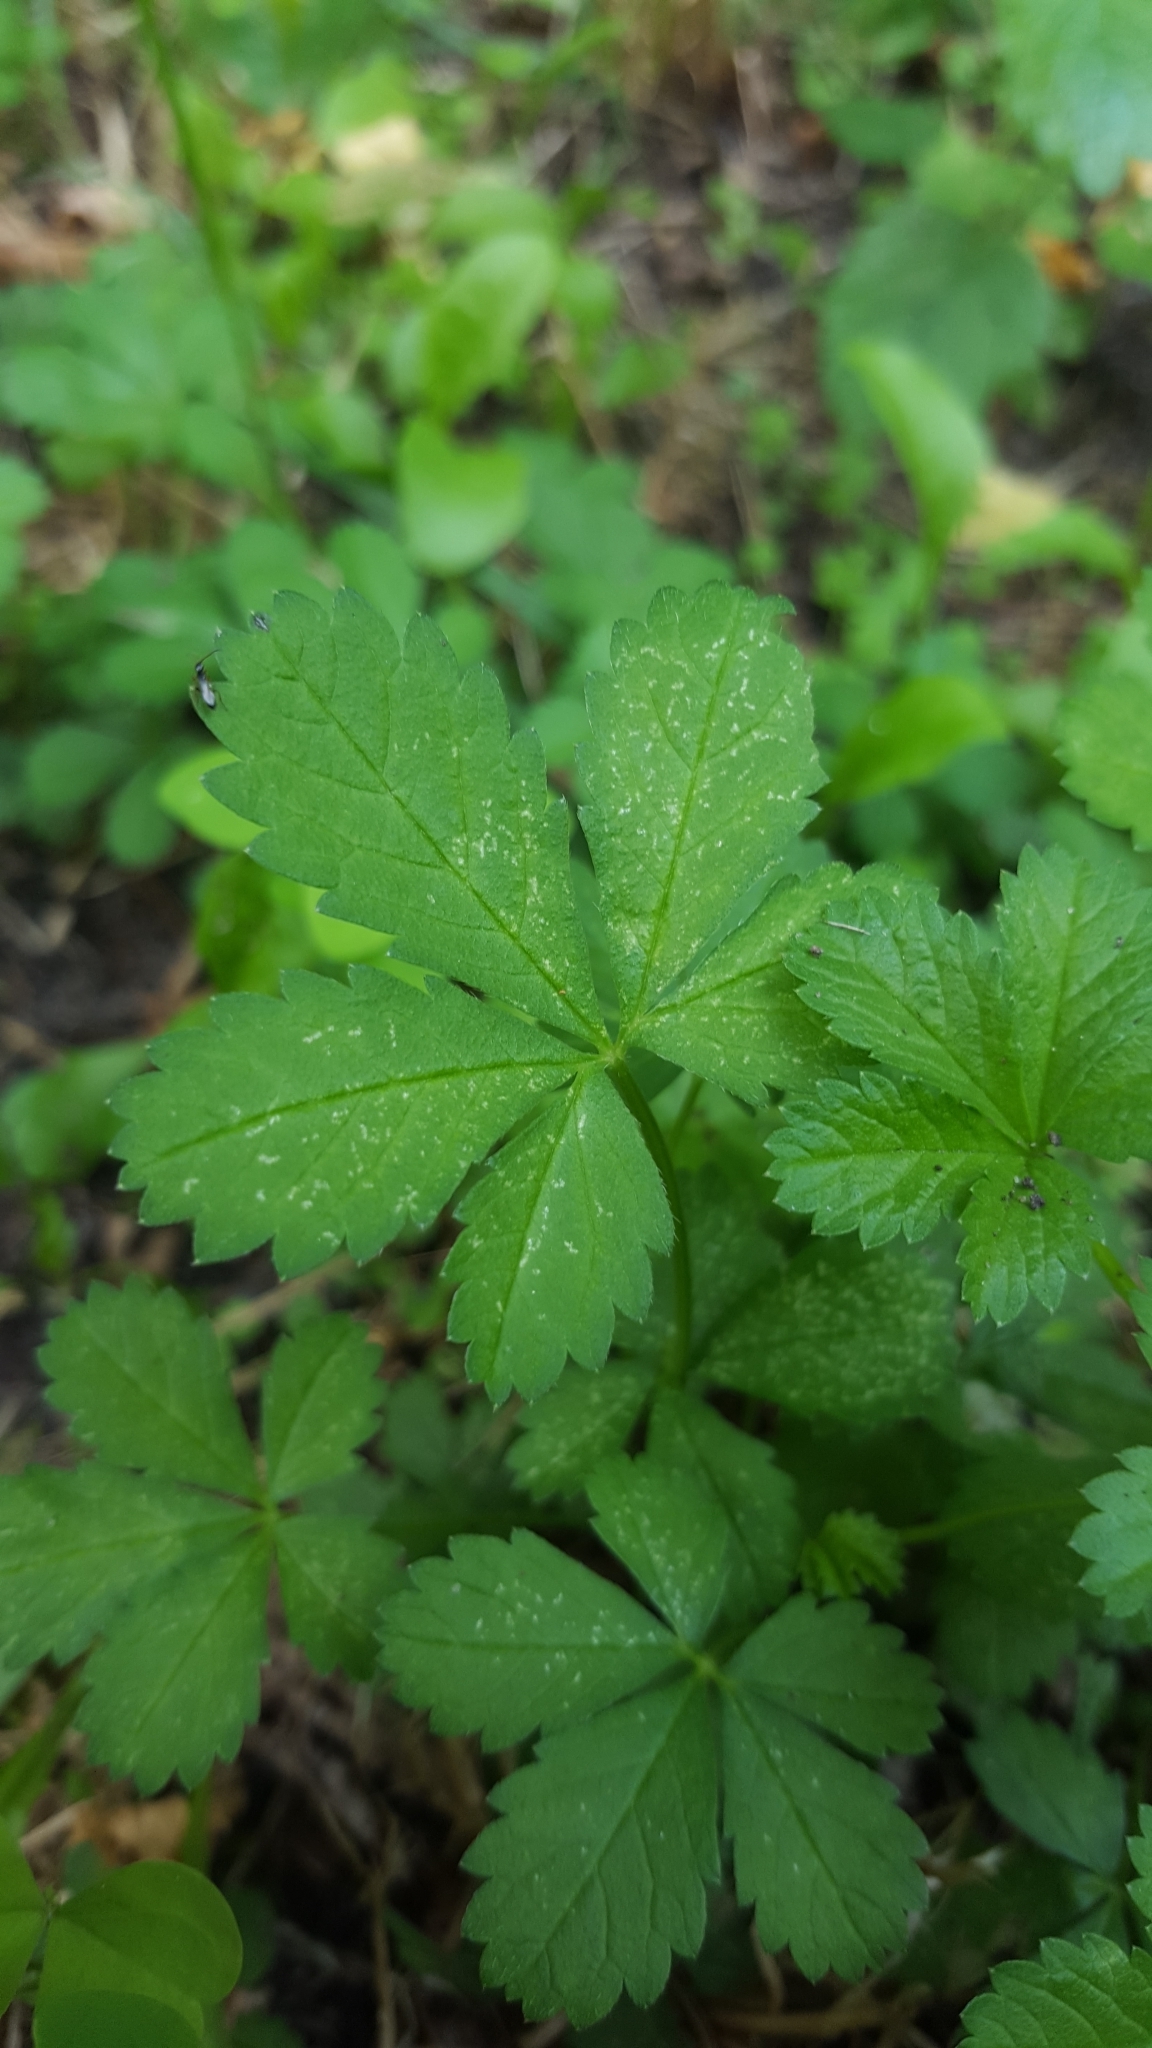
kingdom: Plantae
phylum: Tracheophyta
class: Magnoliopsida
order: Rosales
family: Rosaceae
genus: Potentilla
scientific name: Potentilla reptans
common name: Creeping cinquefoil
